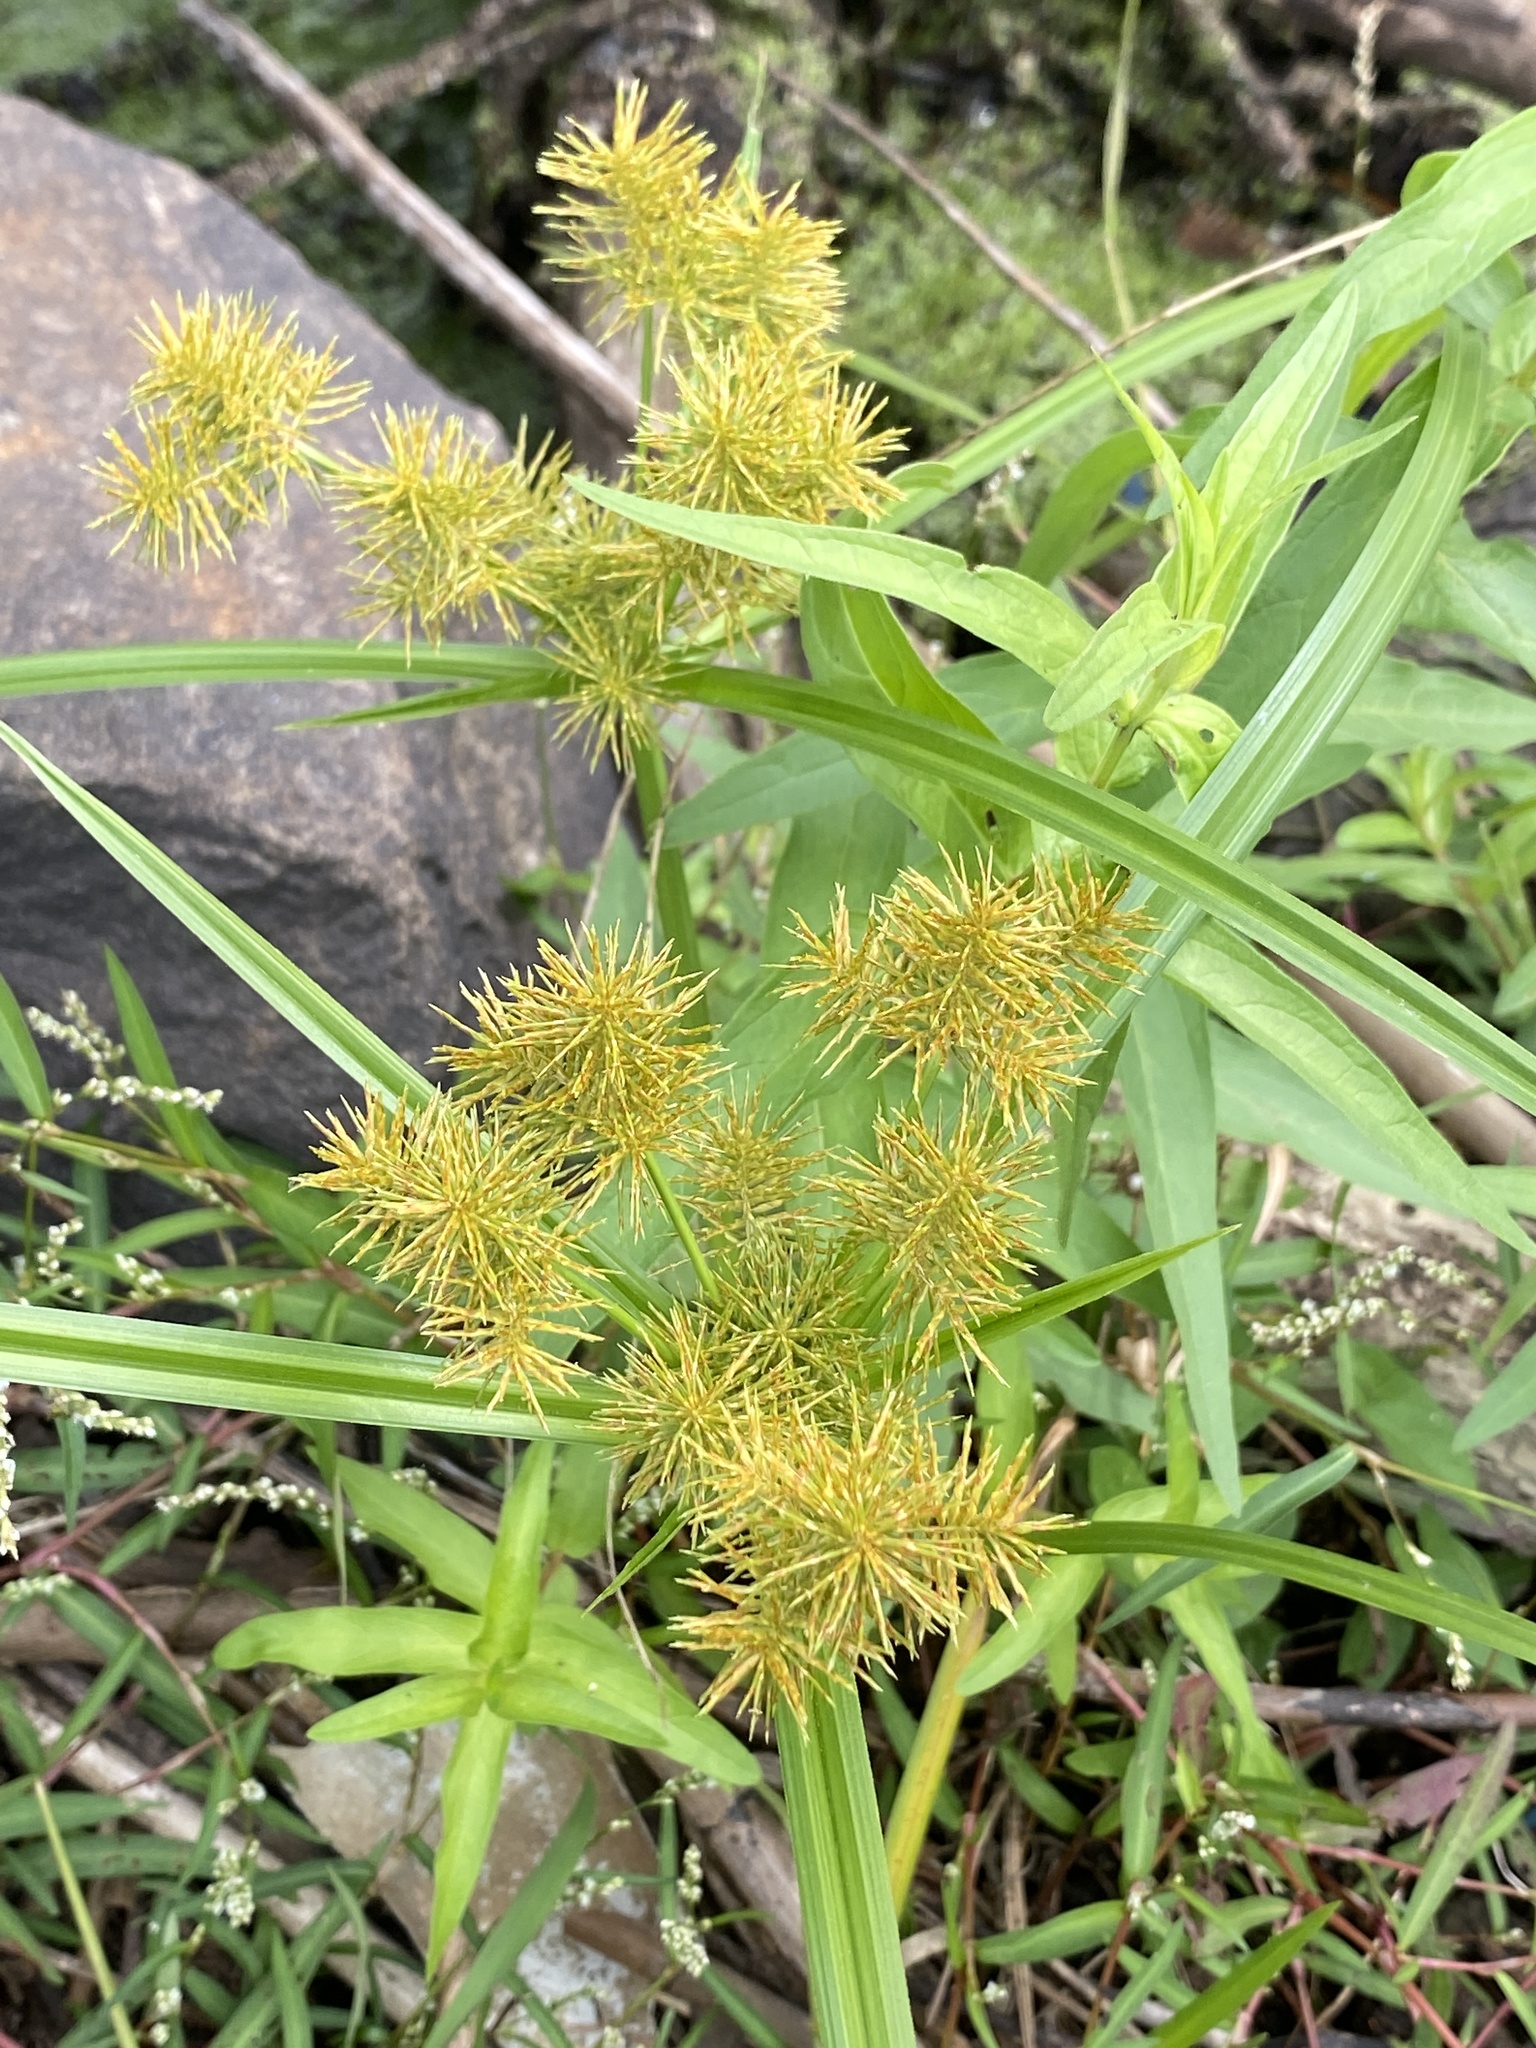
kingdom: Plantae
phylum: Tracheophyta
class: Liliopsida
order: Poales
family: Cyperaceae
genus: Cyperus
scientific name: Cyperus strigosus
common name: False nutsedge
